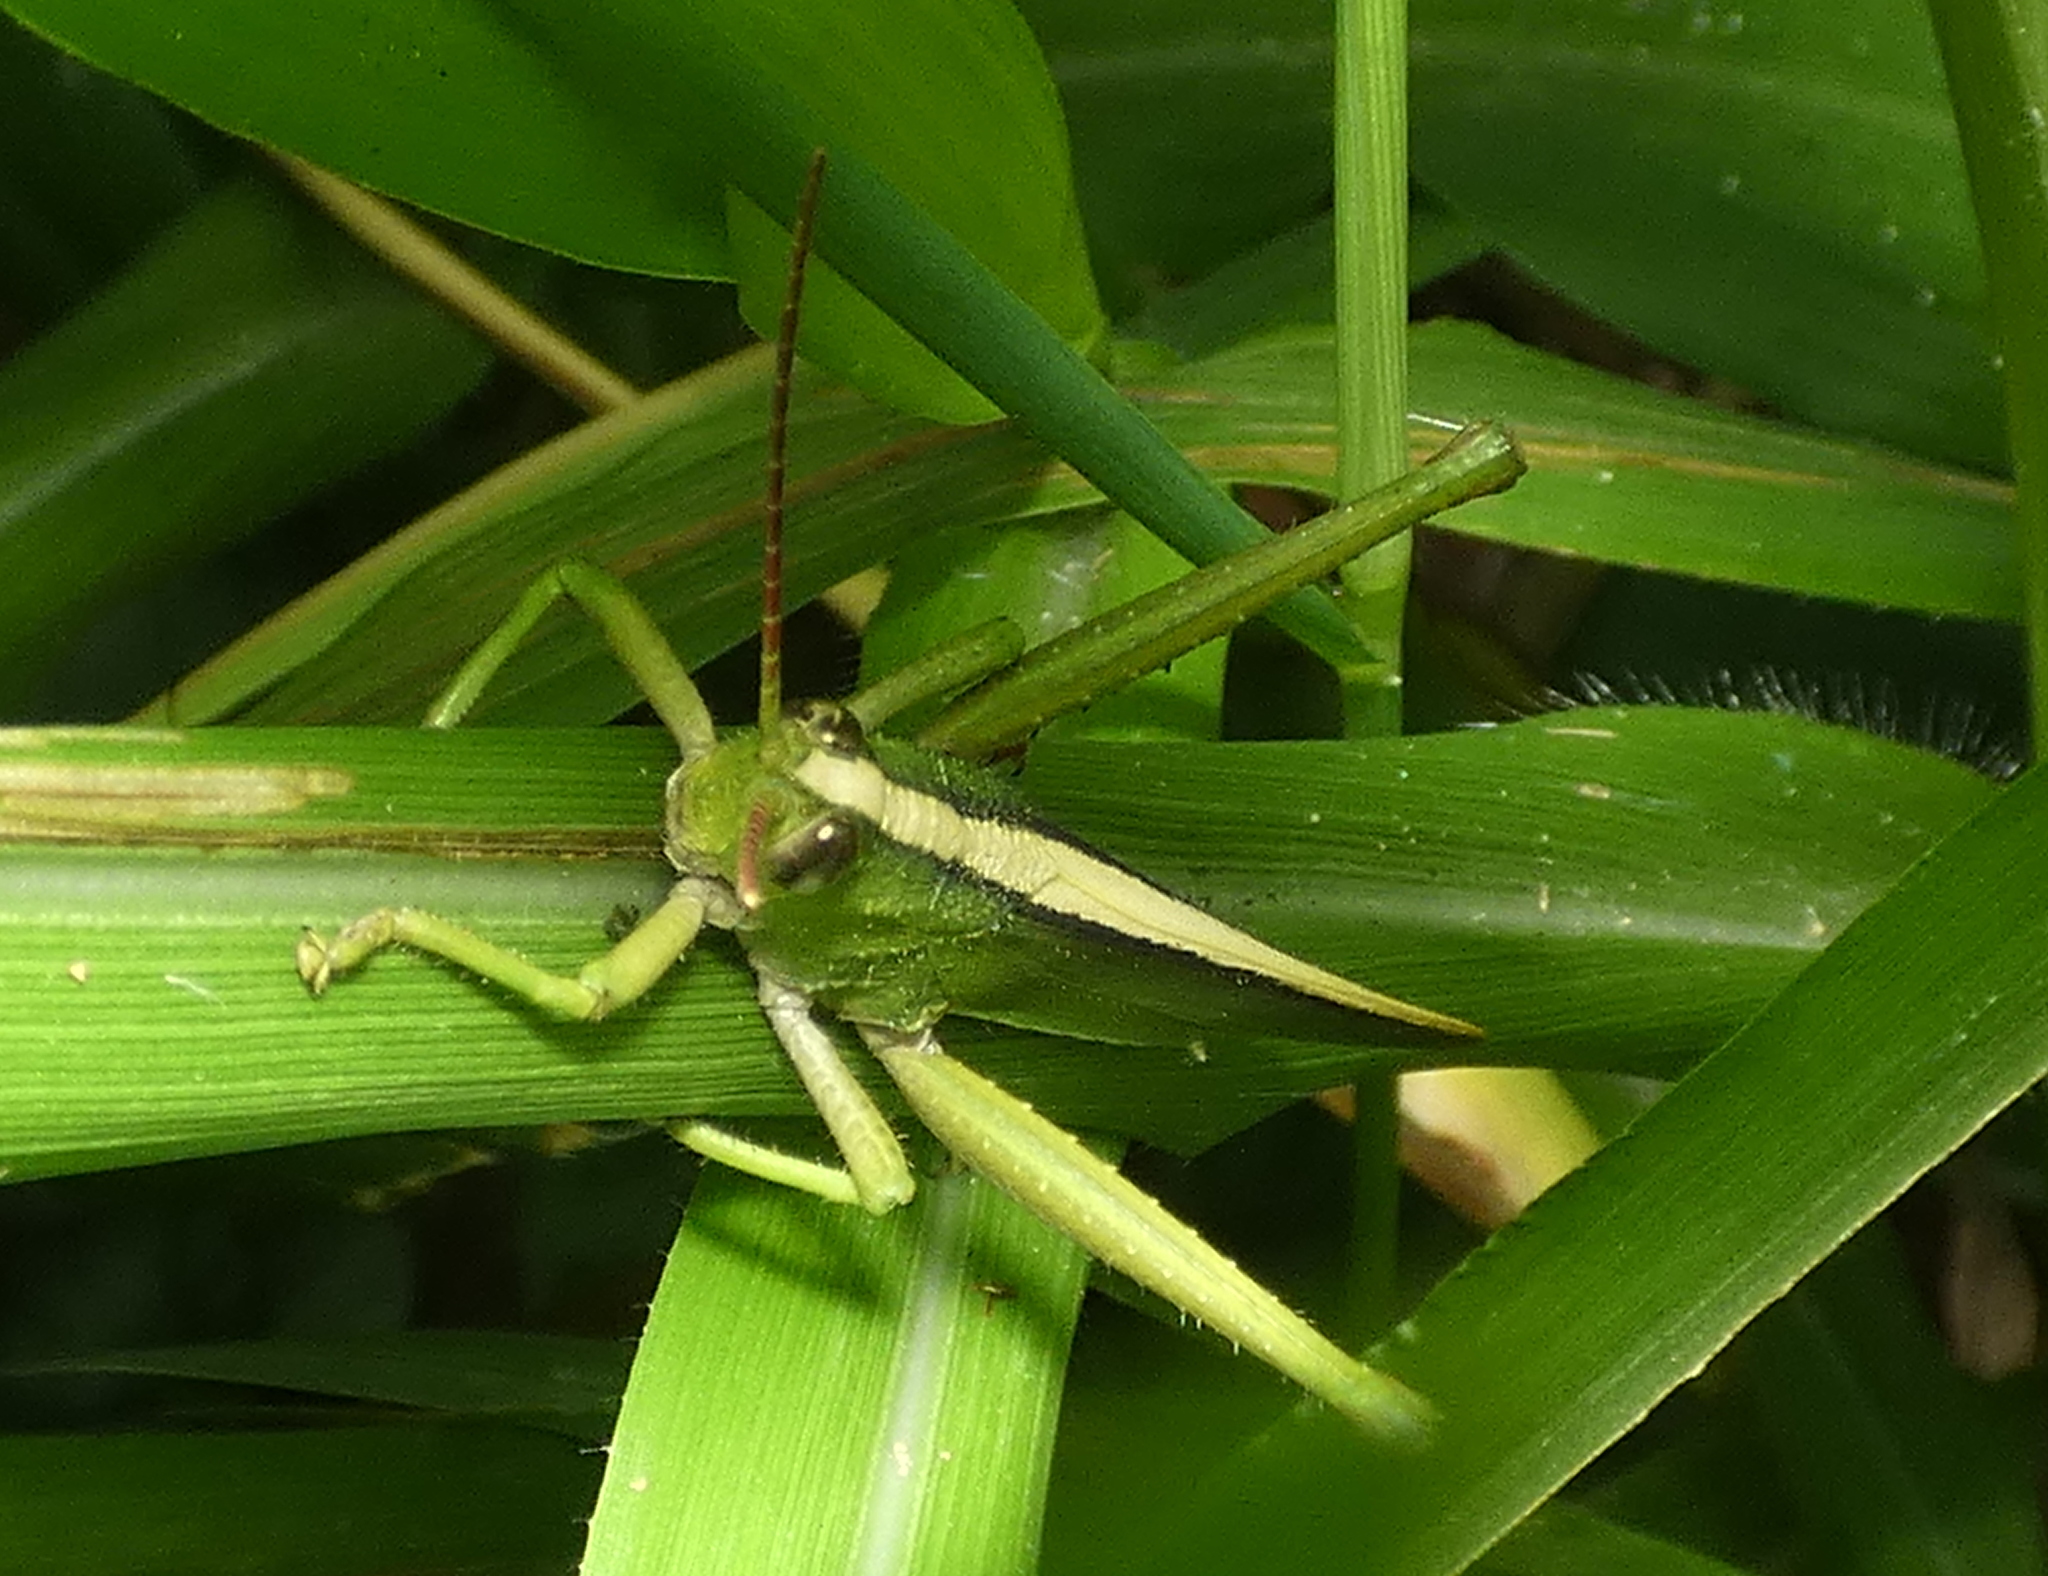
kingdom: Animalia
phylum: Arthropoda
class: Insecta
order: Orthoptera
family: Romaleidae
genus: Agriacris
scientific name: Agriacris auripennis
